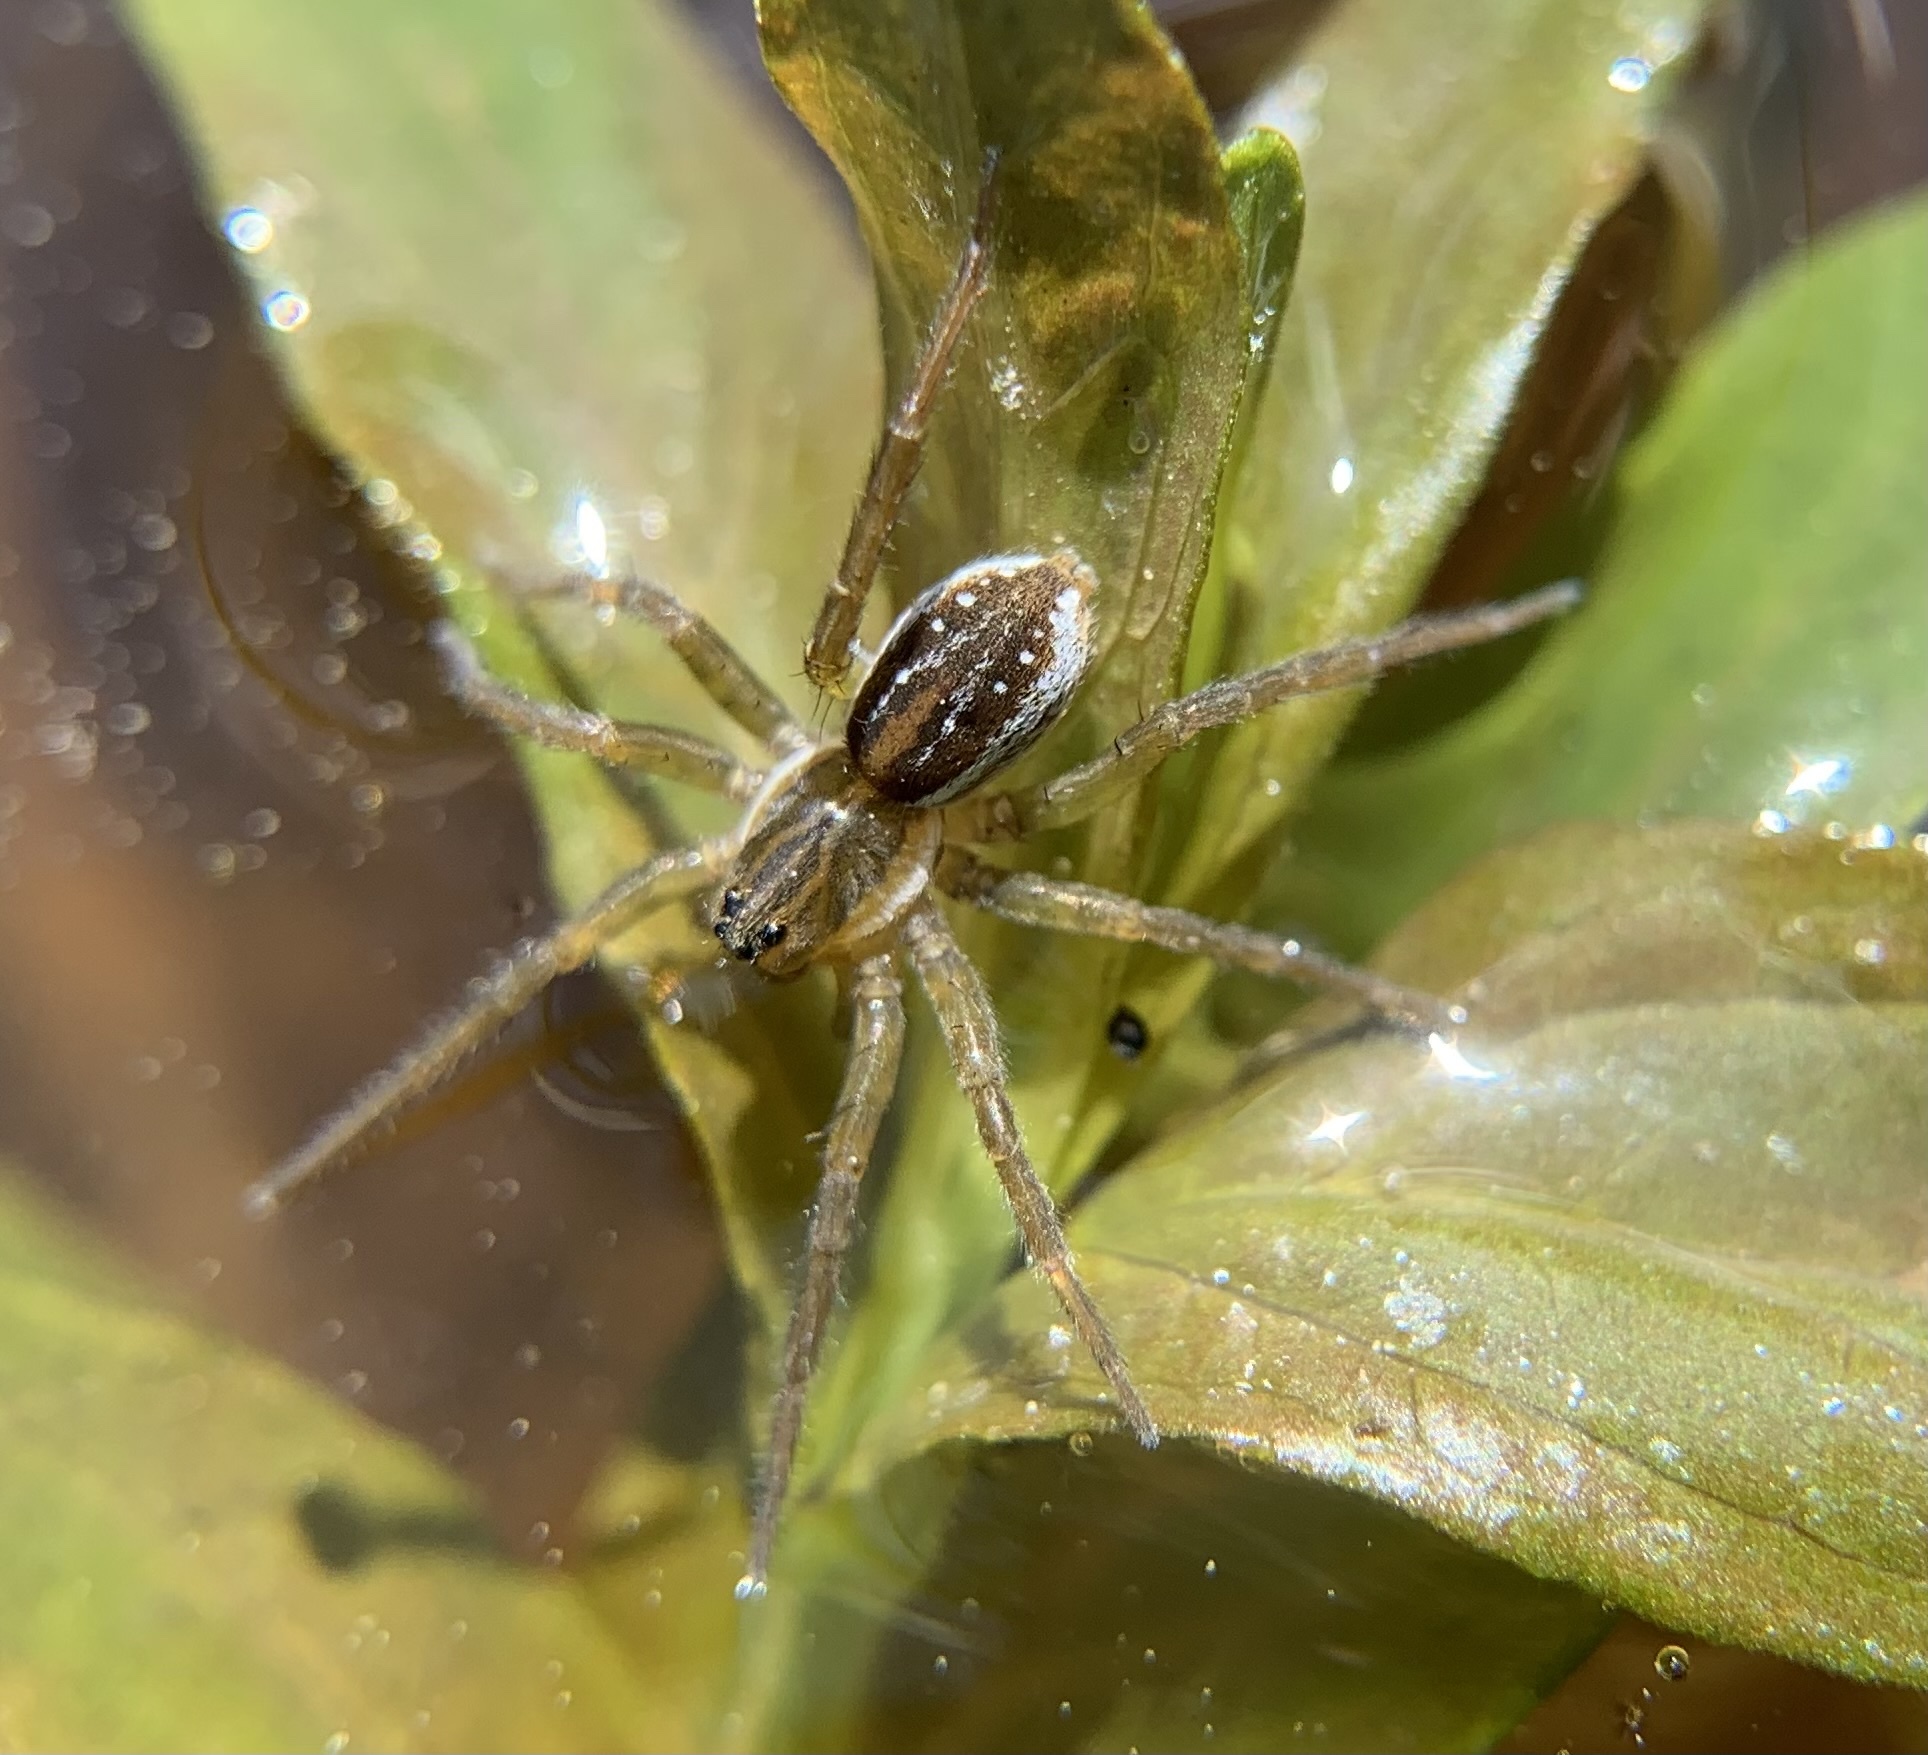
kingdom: Animalia
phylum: Arthropoda
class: Arachnida
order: Araneae
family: Lycosidae
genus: Pirata
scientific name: Pirata piraticus
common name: Pirate otter spider
